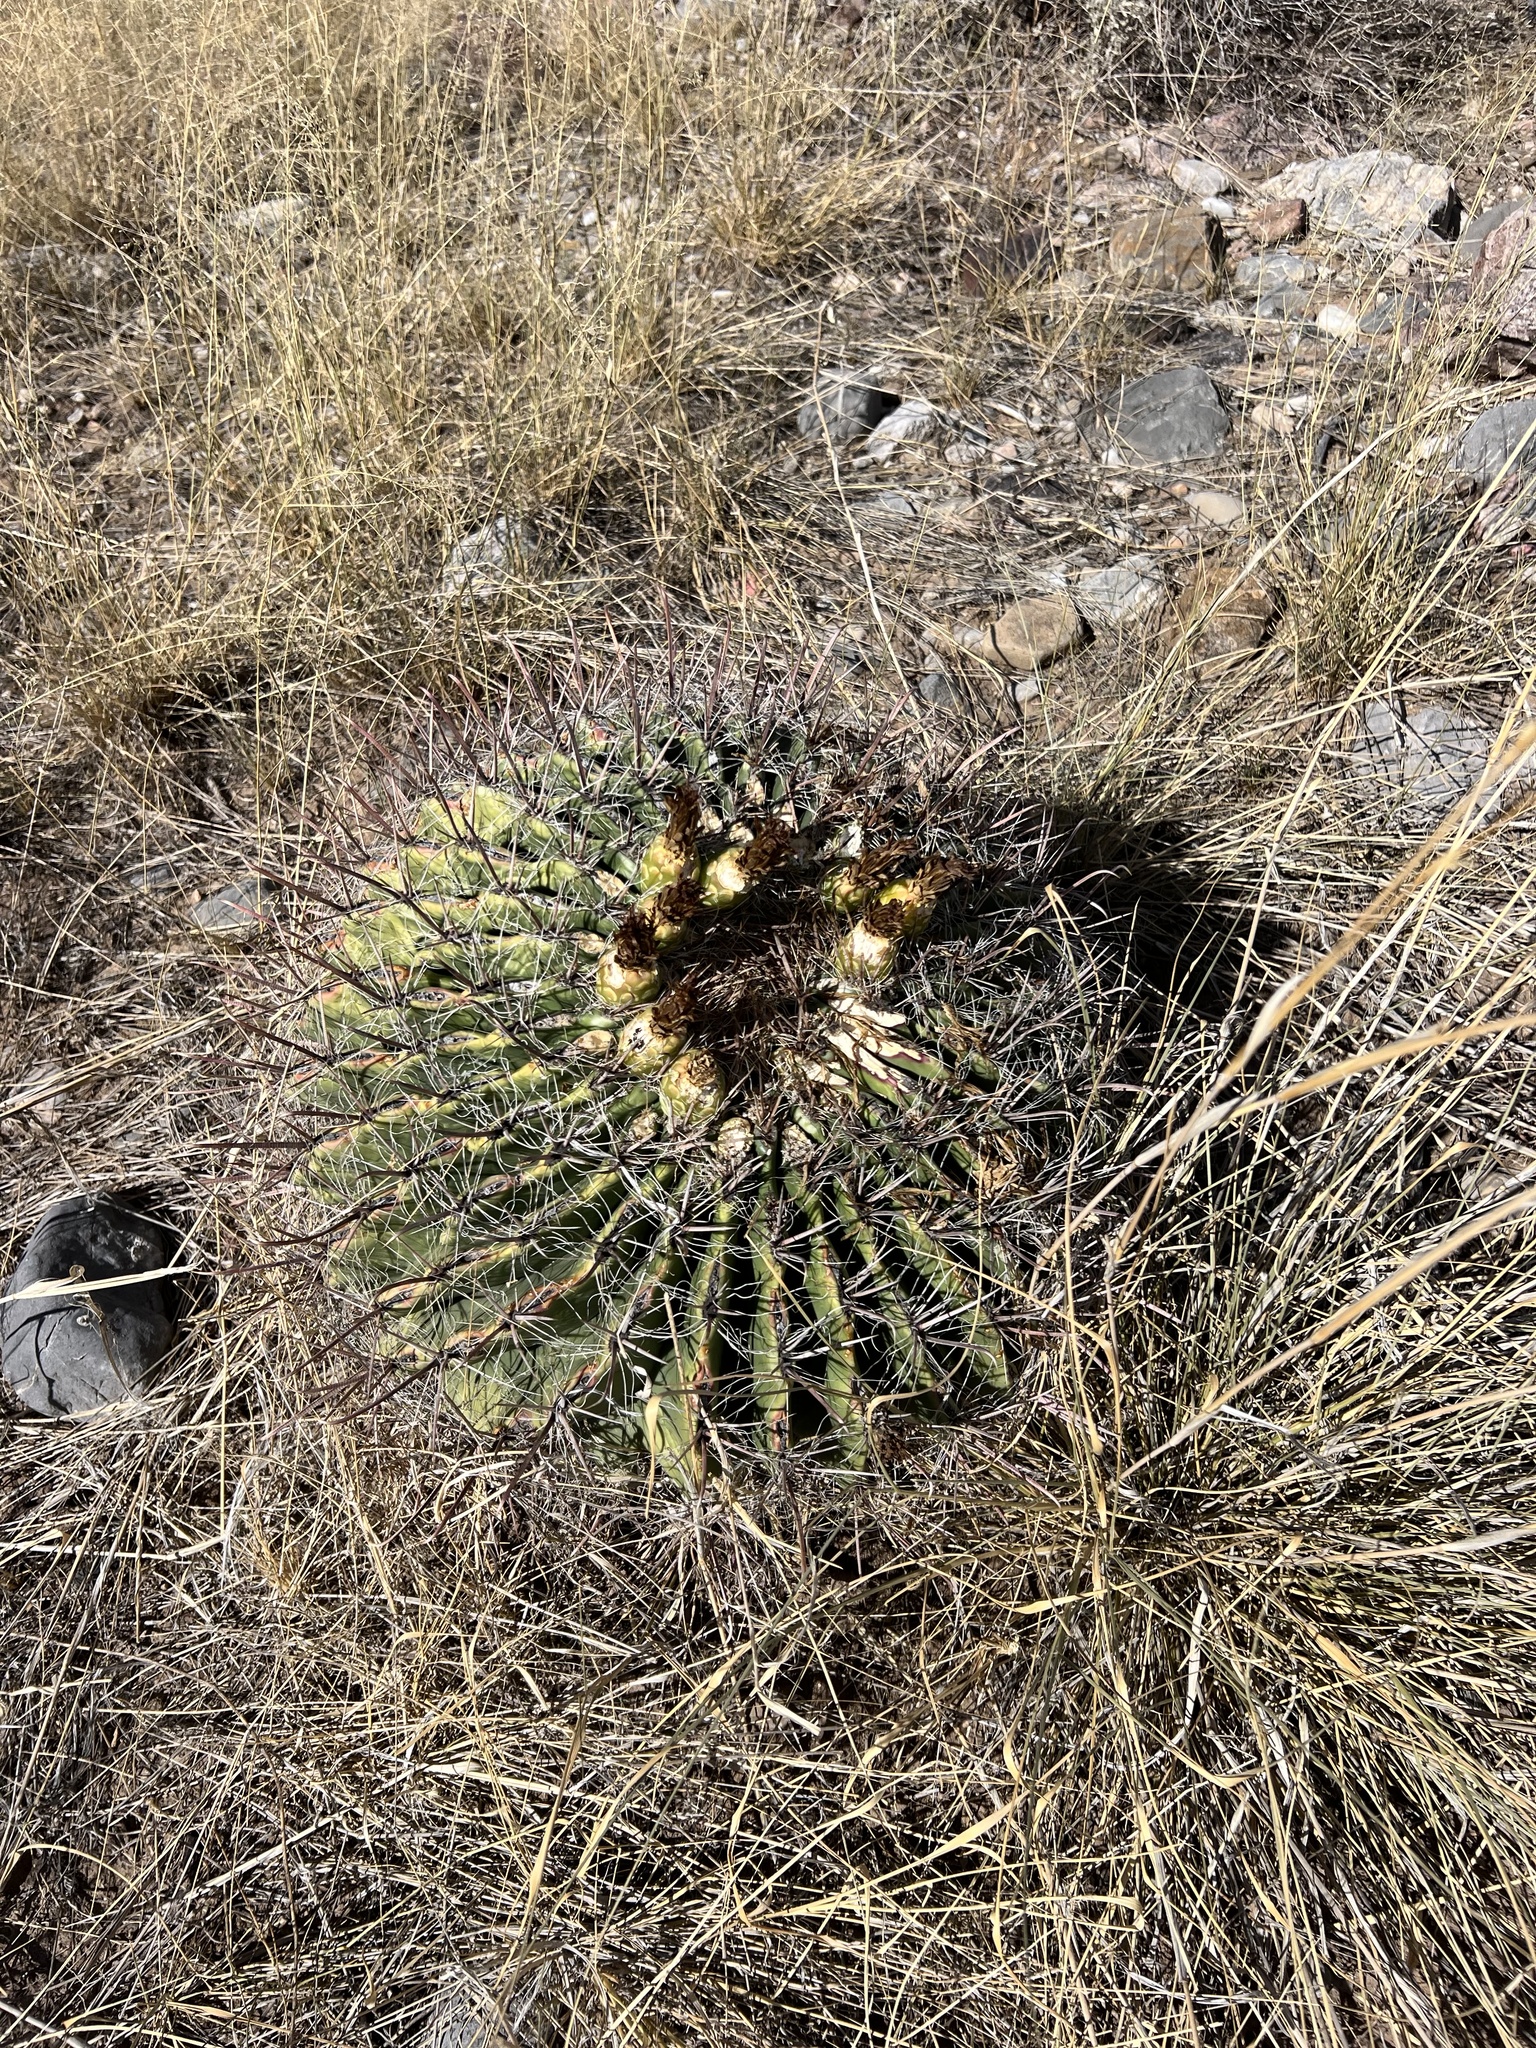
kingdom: Plantae
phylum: Tracheophyta
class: Magnoliopsida
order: Caryophyllales
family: Cactaceae
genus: Ferocactus
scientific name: Ferocactus wislizeni
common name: Candy barrel cactus
